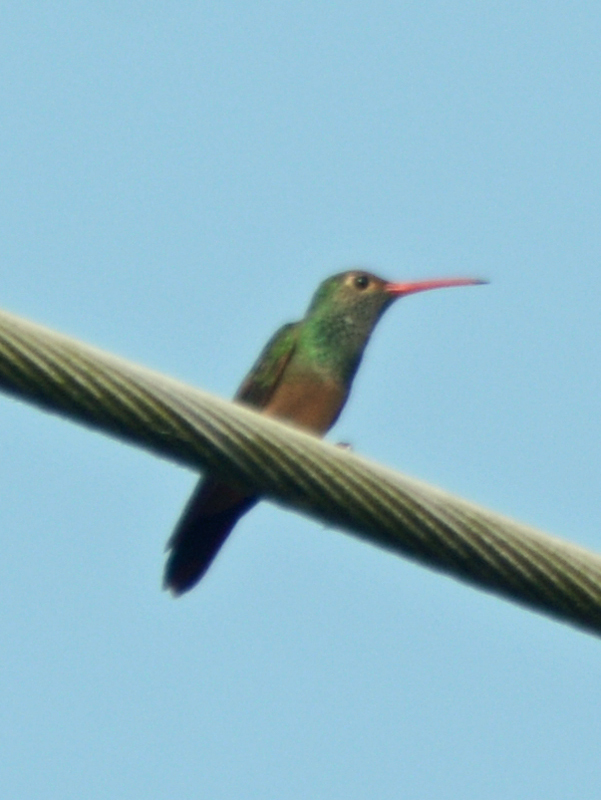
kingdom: Animalia
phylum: Chordata
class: Aves
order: Apodiformes
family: Trochilidae
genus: Amazilia
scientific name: Amazilia yucatanensis
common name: Buff-bellied hummingbird
